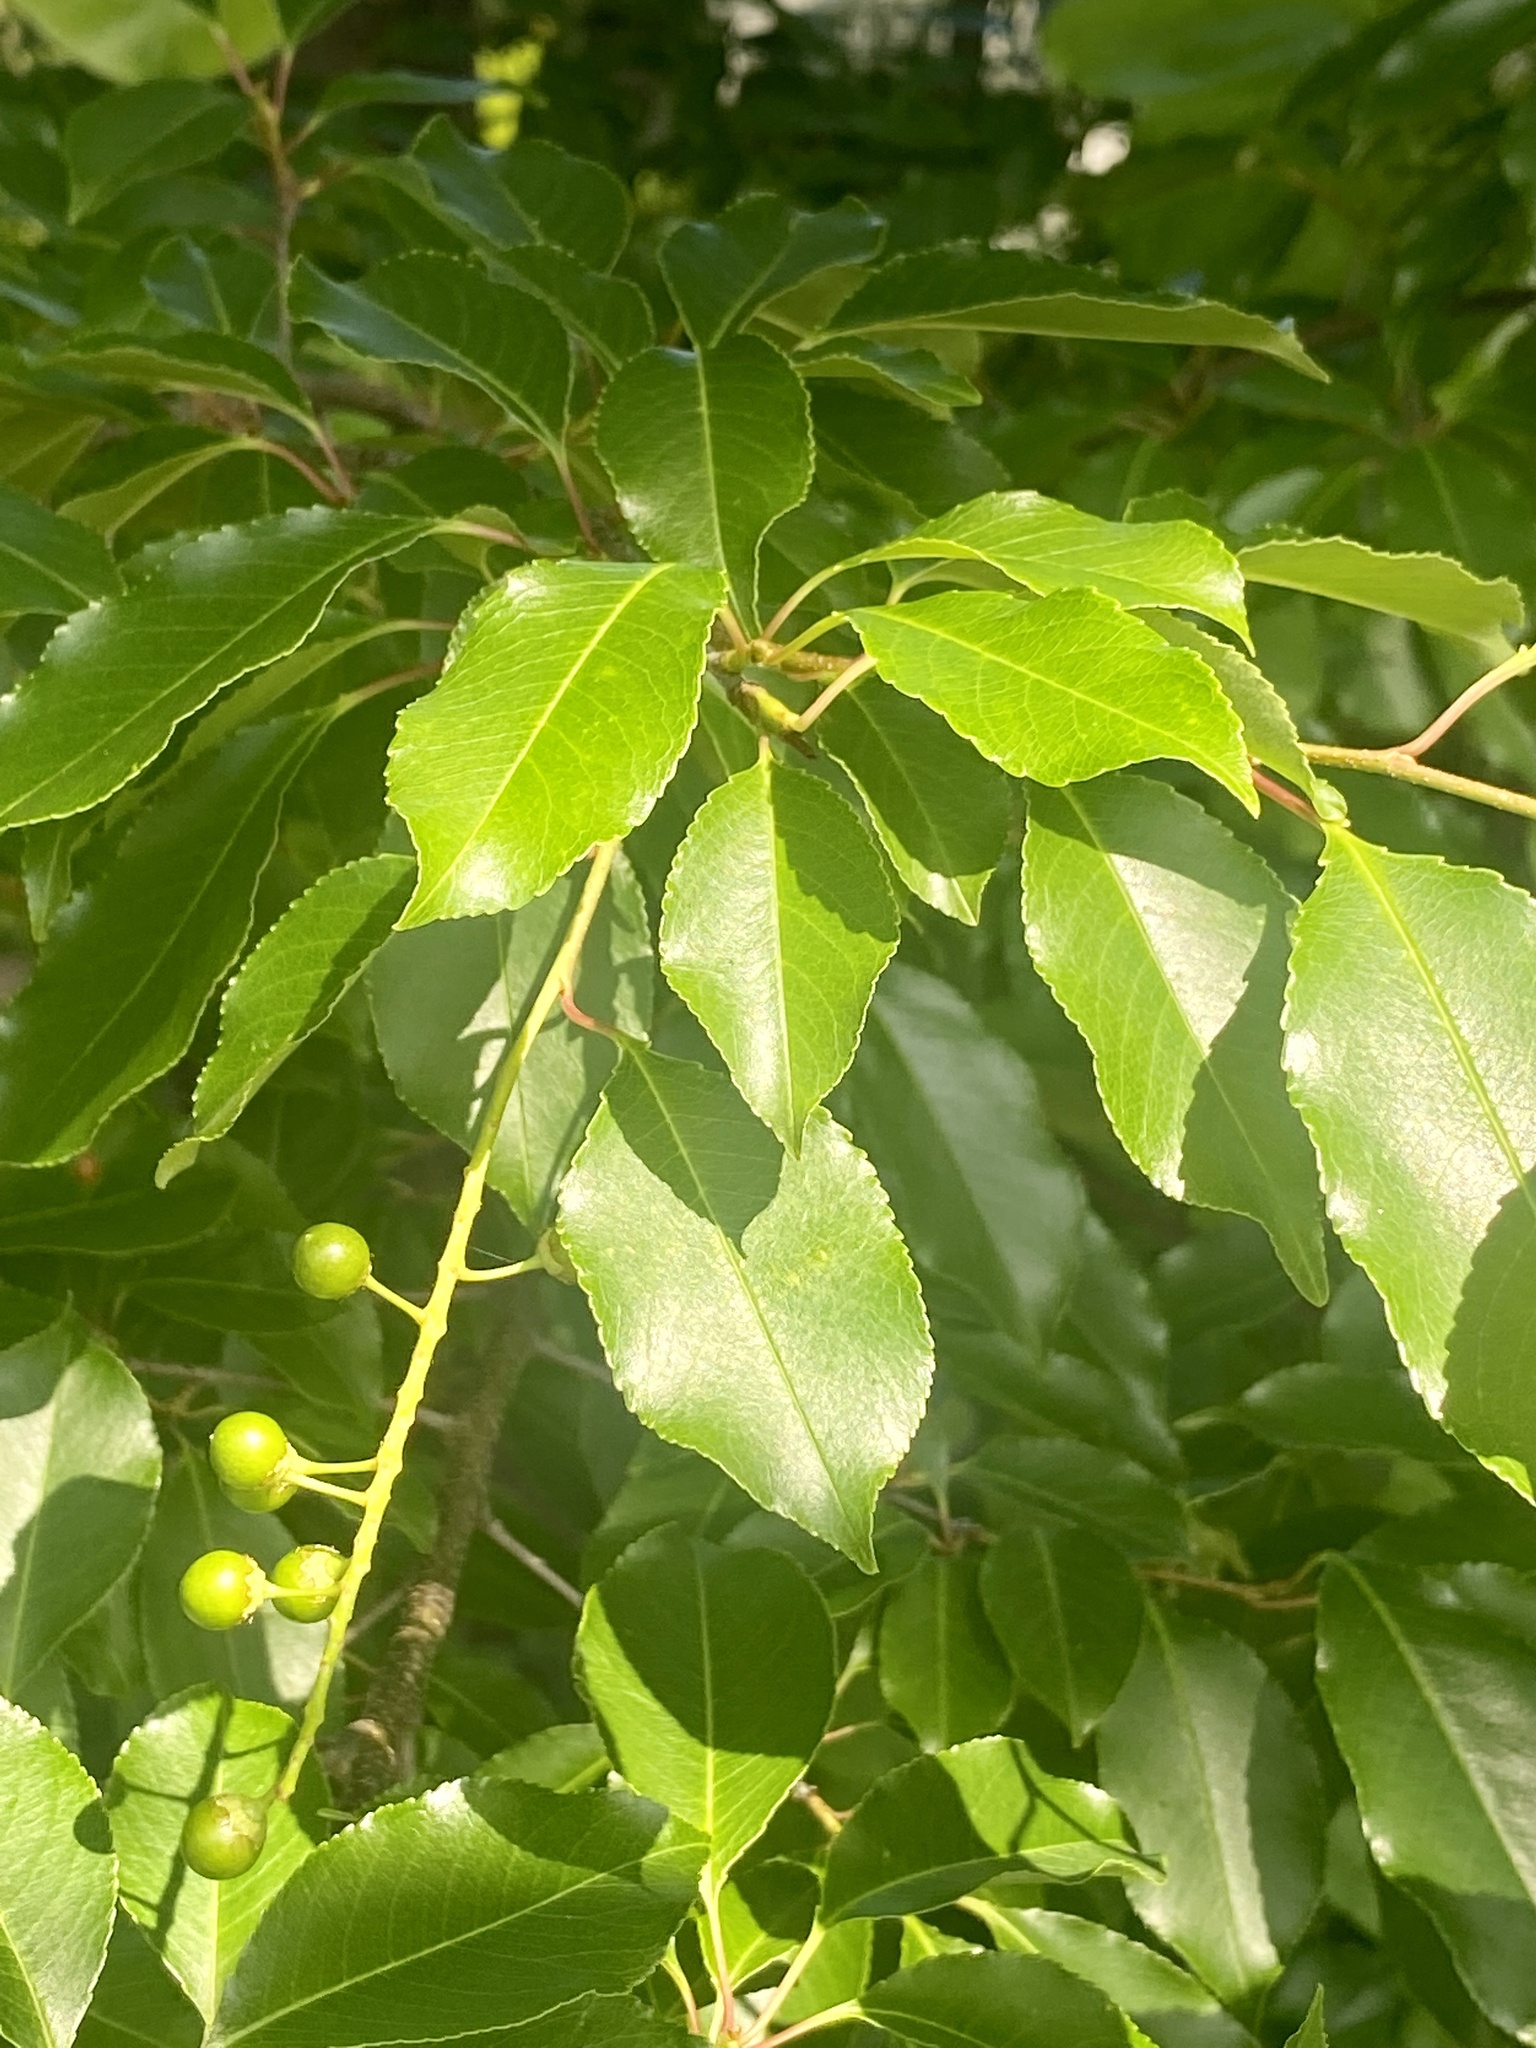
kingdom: Plantae
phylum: Tracheophyta
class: Magnoliopsida
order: Rosales
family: Rosaceae
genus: Prunus
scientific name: Prunus serotina
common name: Black cherry
